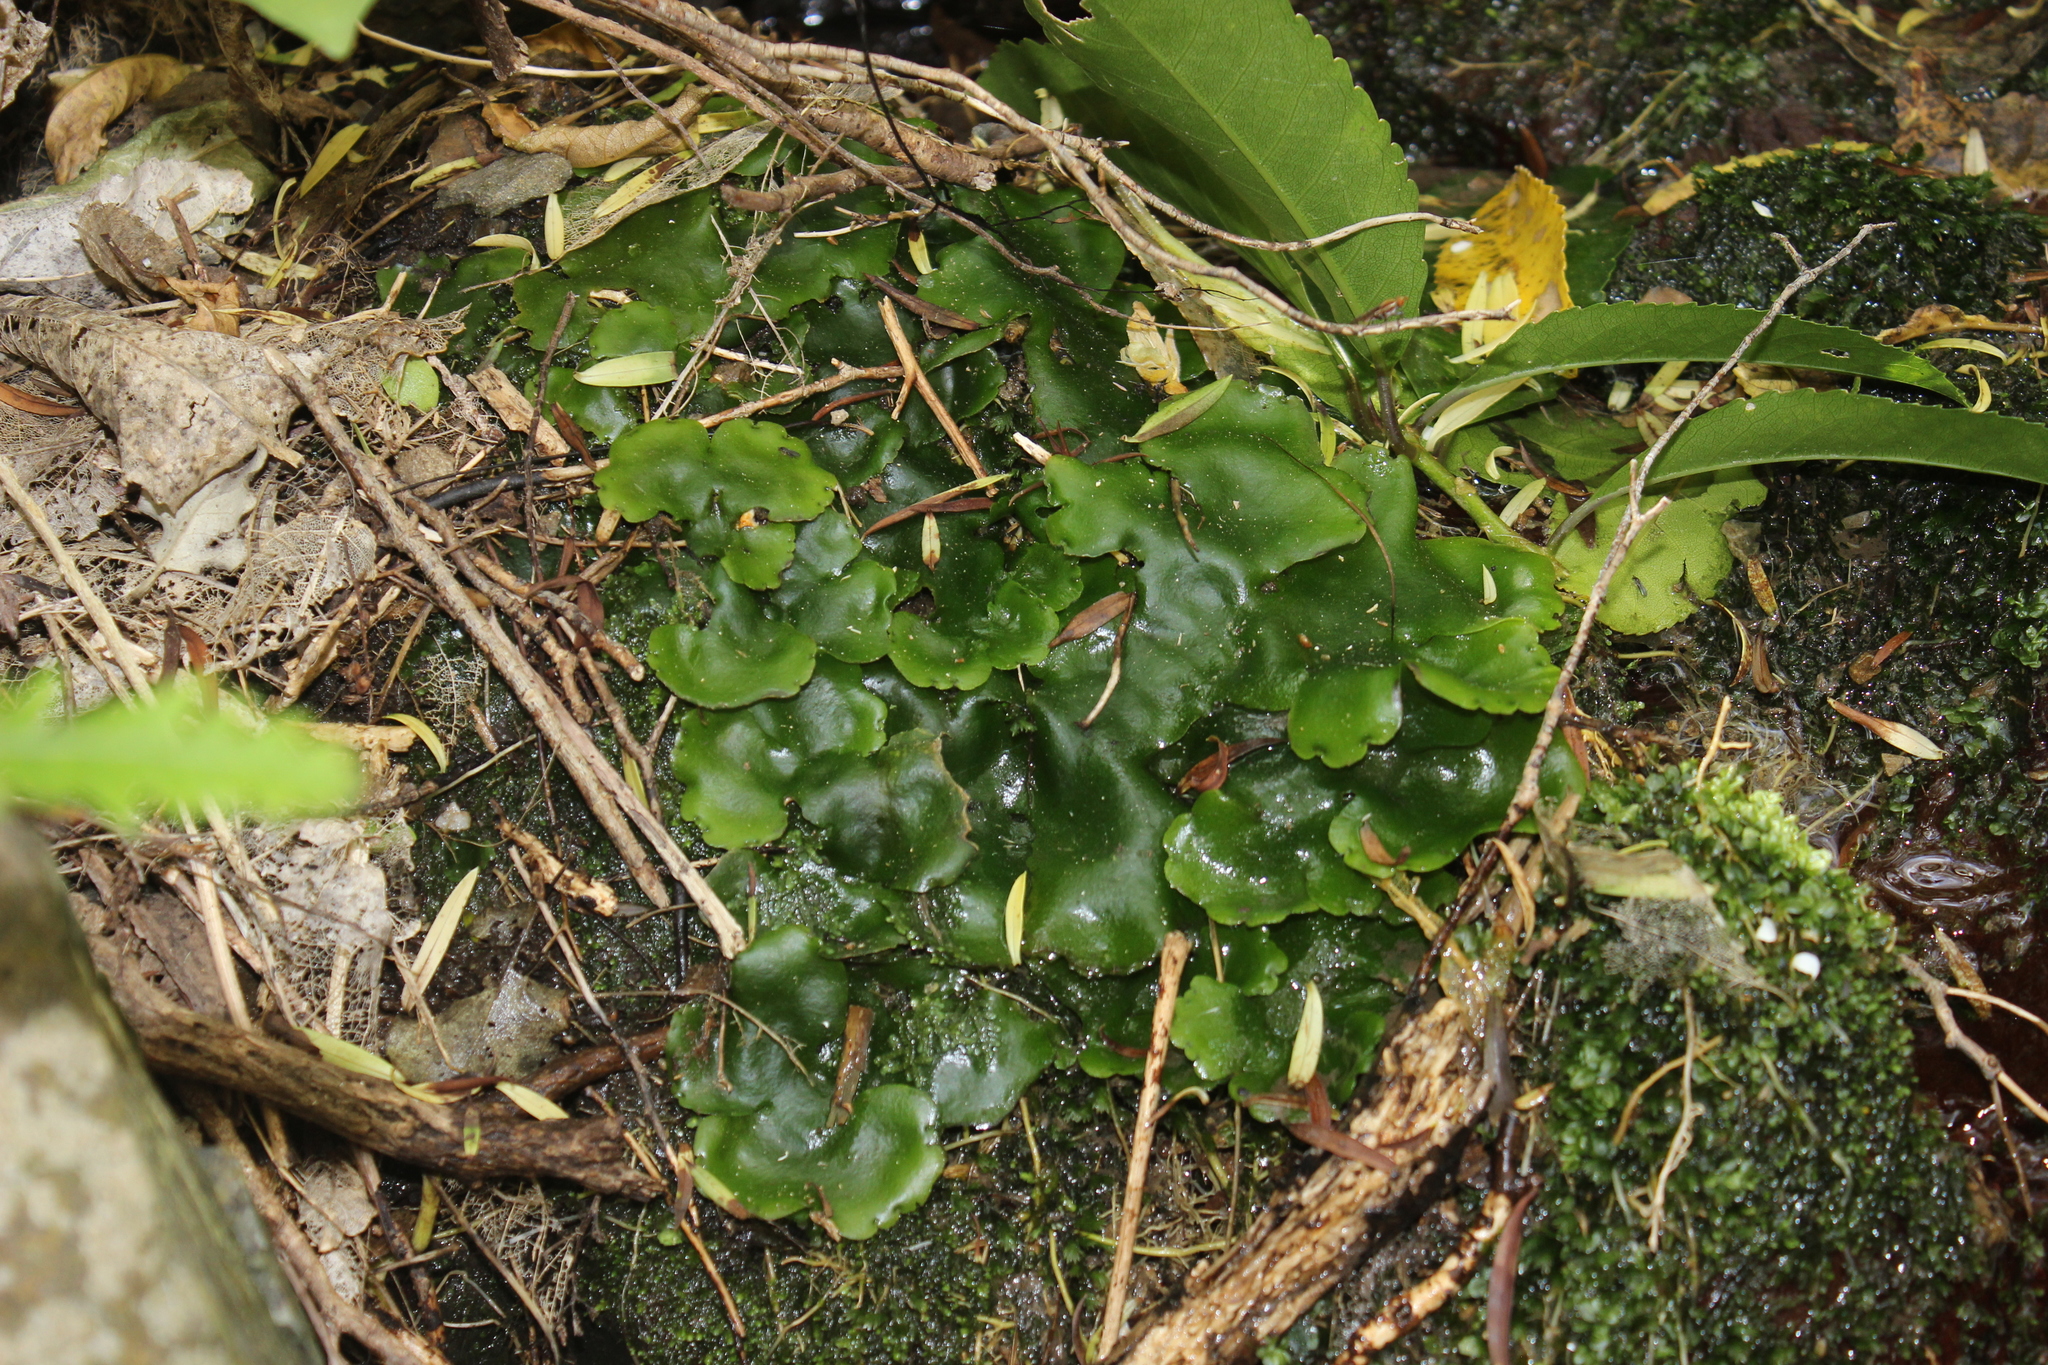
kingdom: Plantae
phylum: Marchantiophyta
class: Marchantiopsida
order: Marchantiales
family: Monocleaceae
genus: Monoclea
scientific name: Monoclea forsteri
